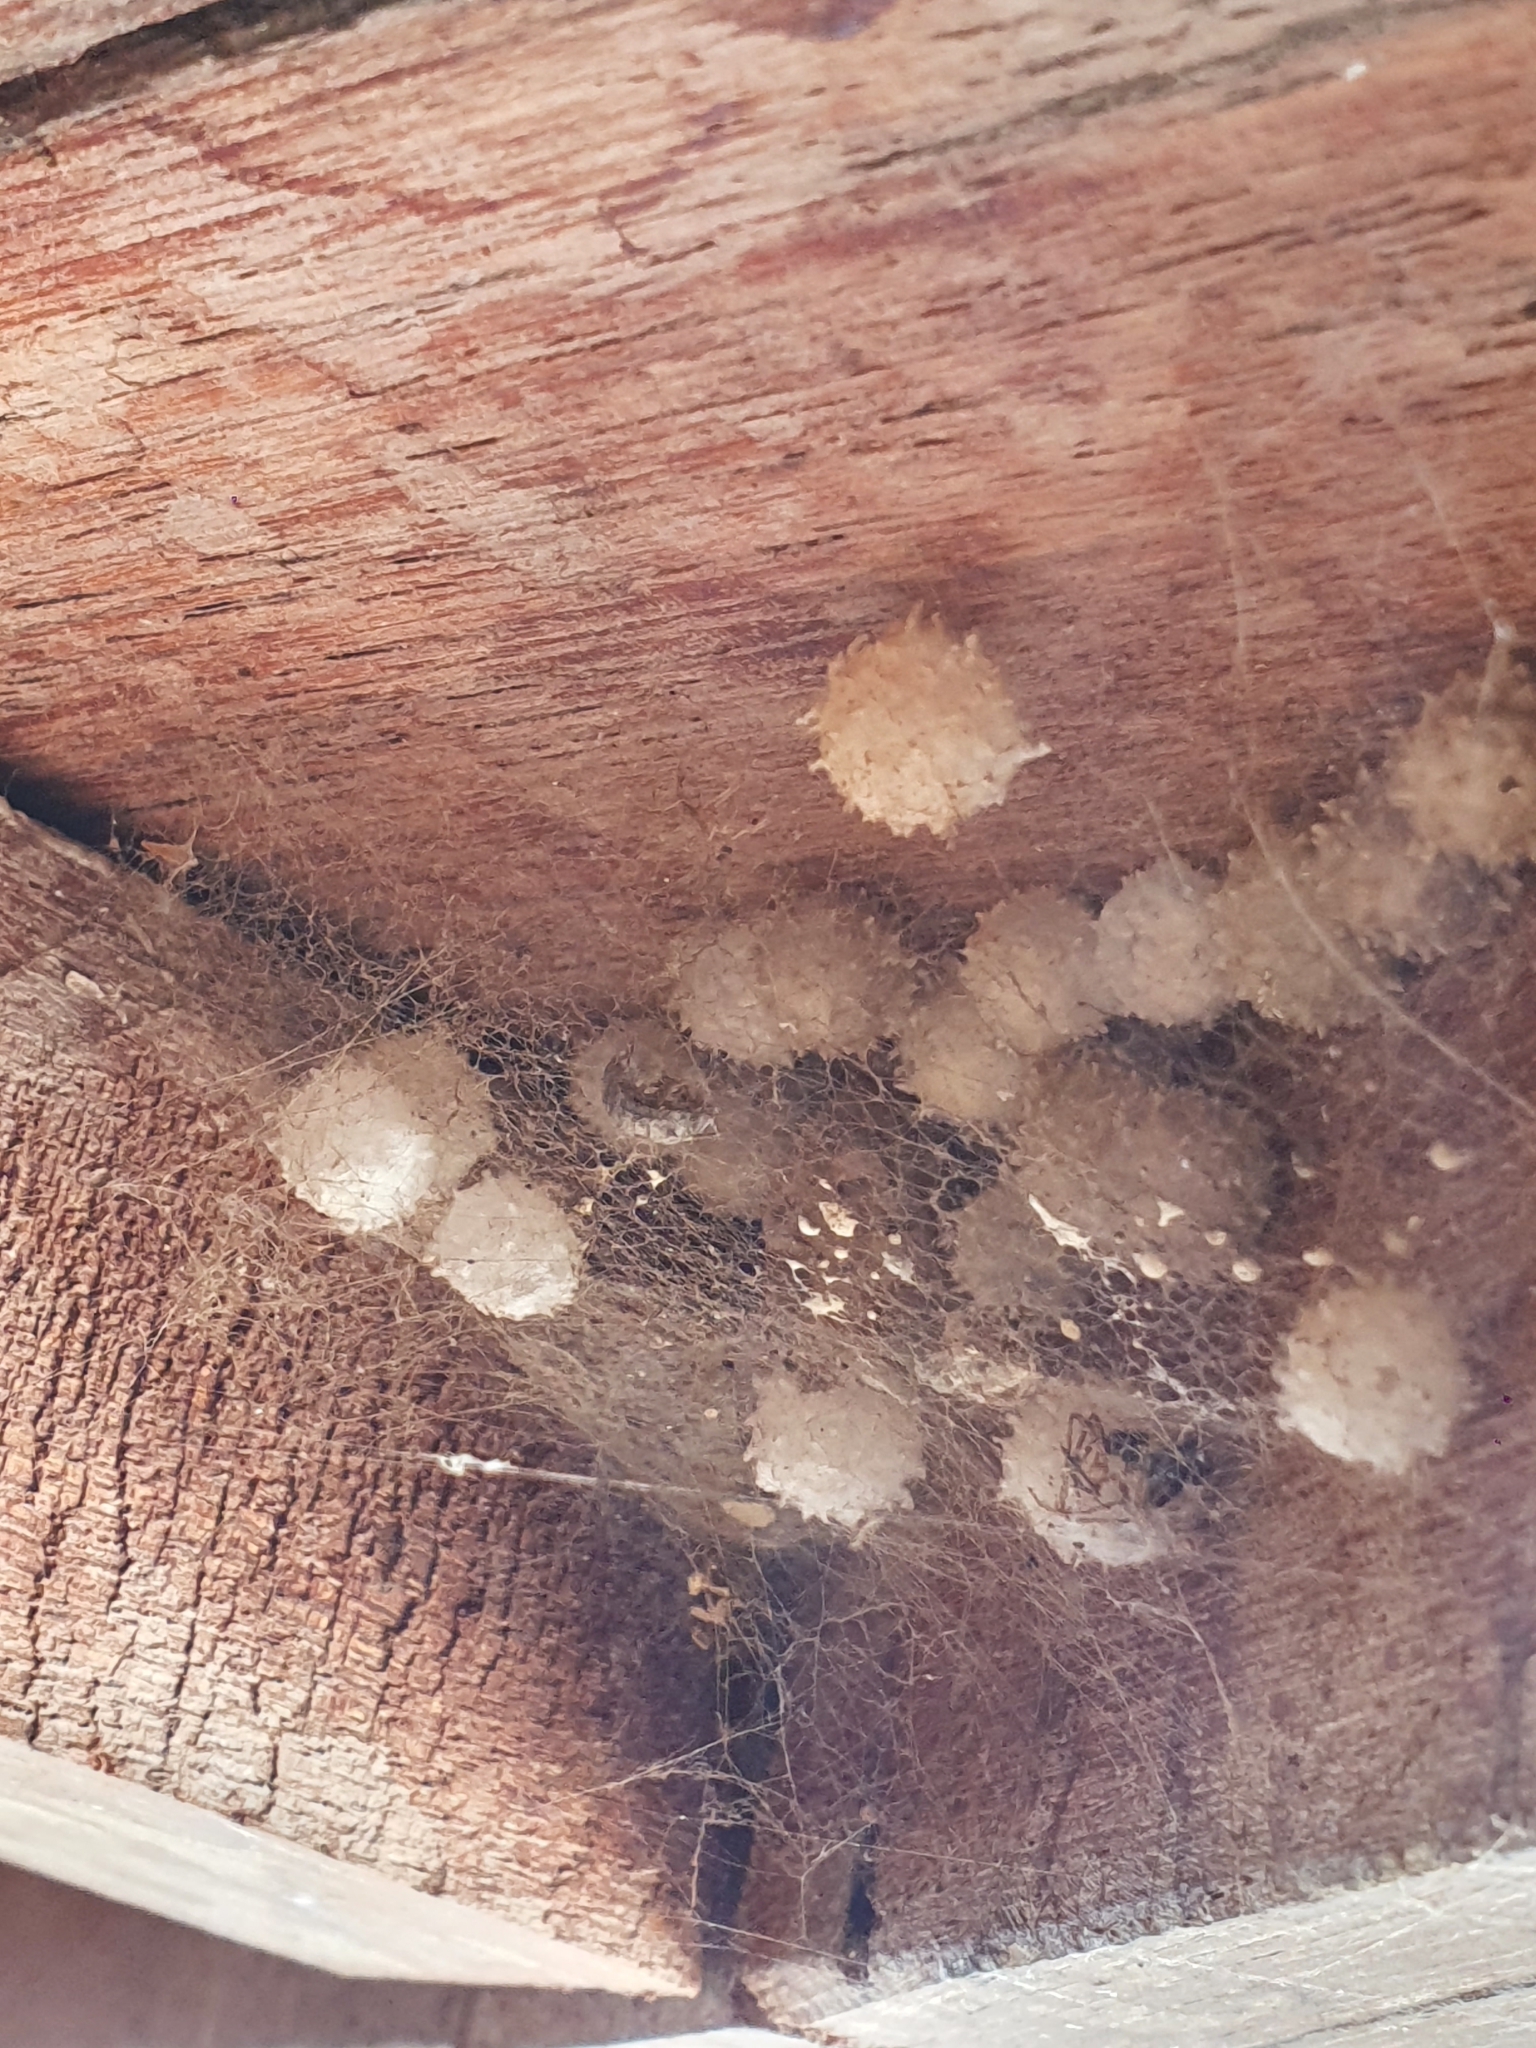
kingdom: Animalia
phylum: Arthropoda
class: Arachnida
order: Araneae
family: Theridiidae
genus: Latrodectus
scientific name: Latrodectus geometricus
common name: Brown widow spider
